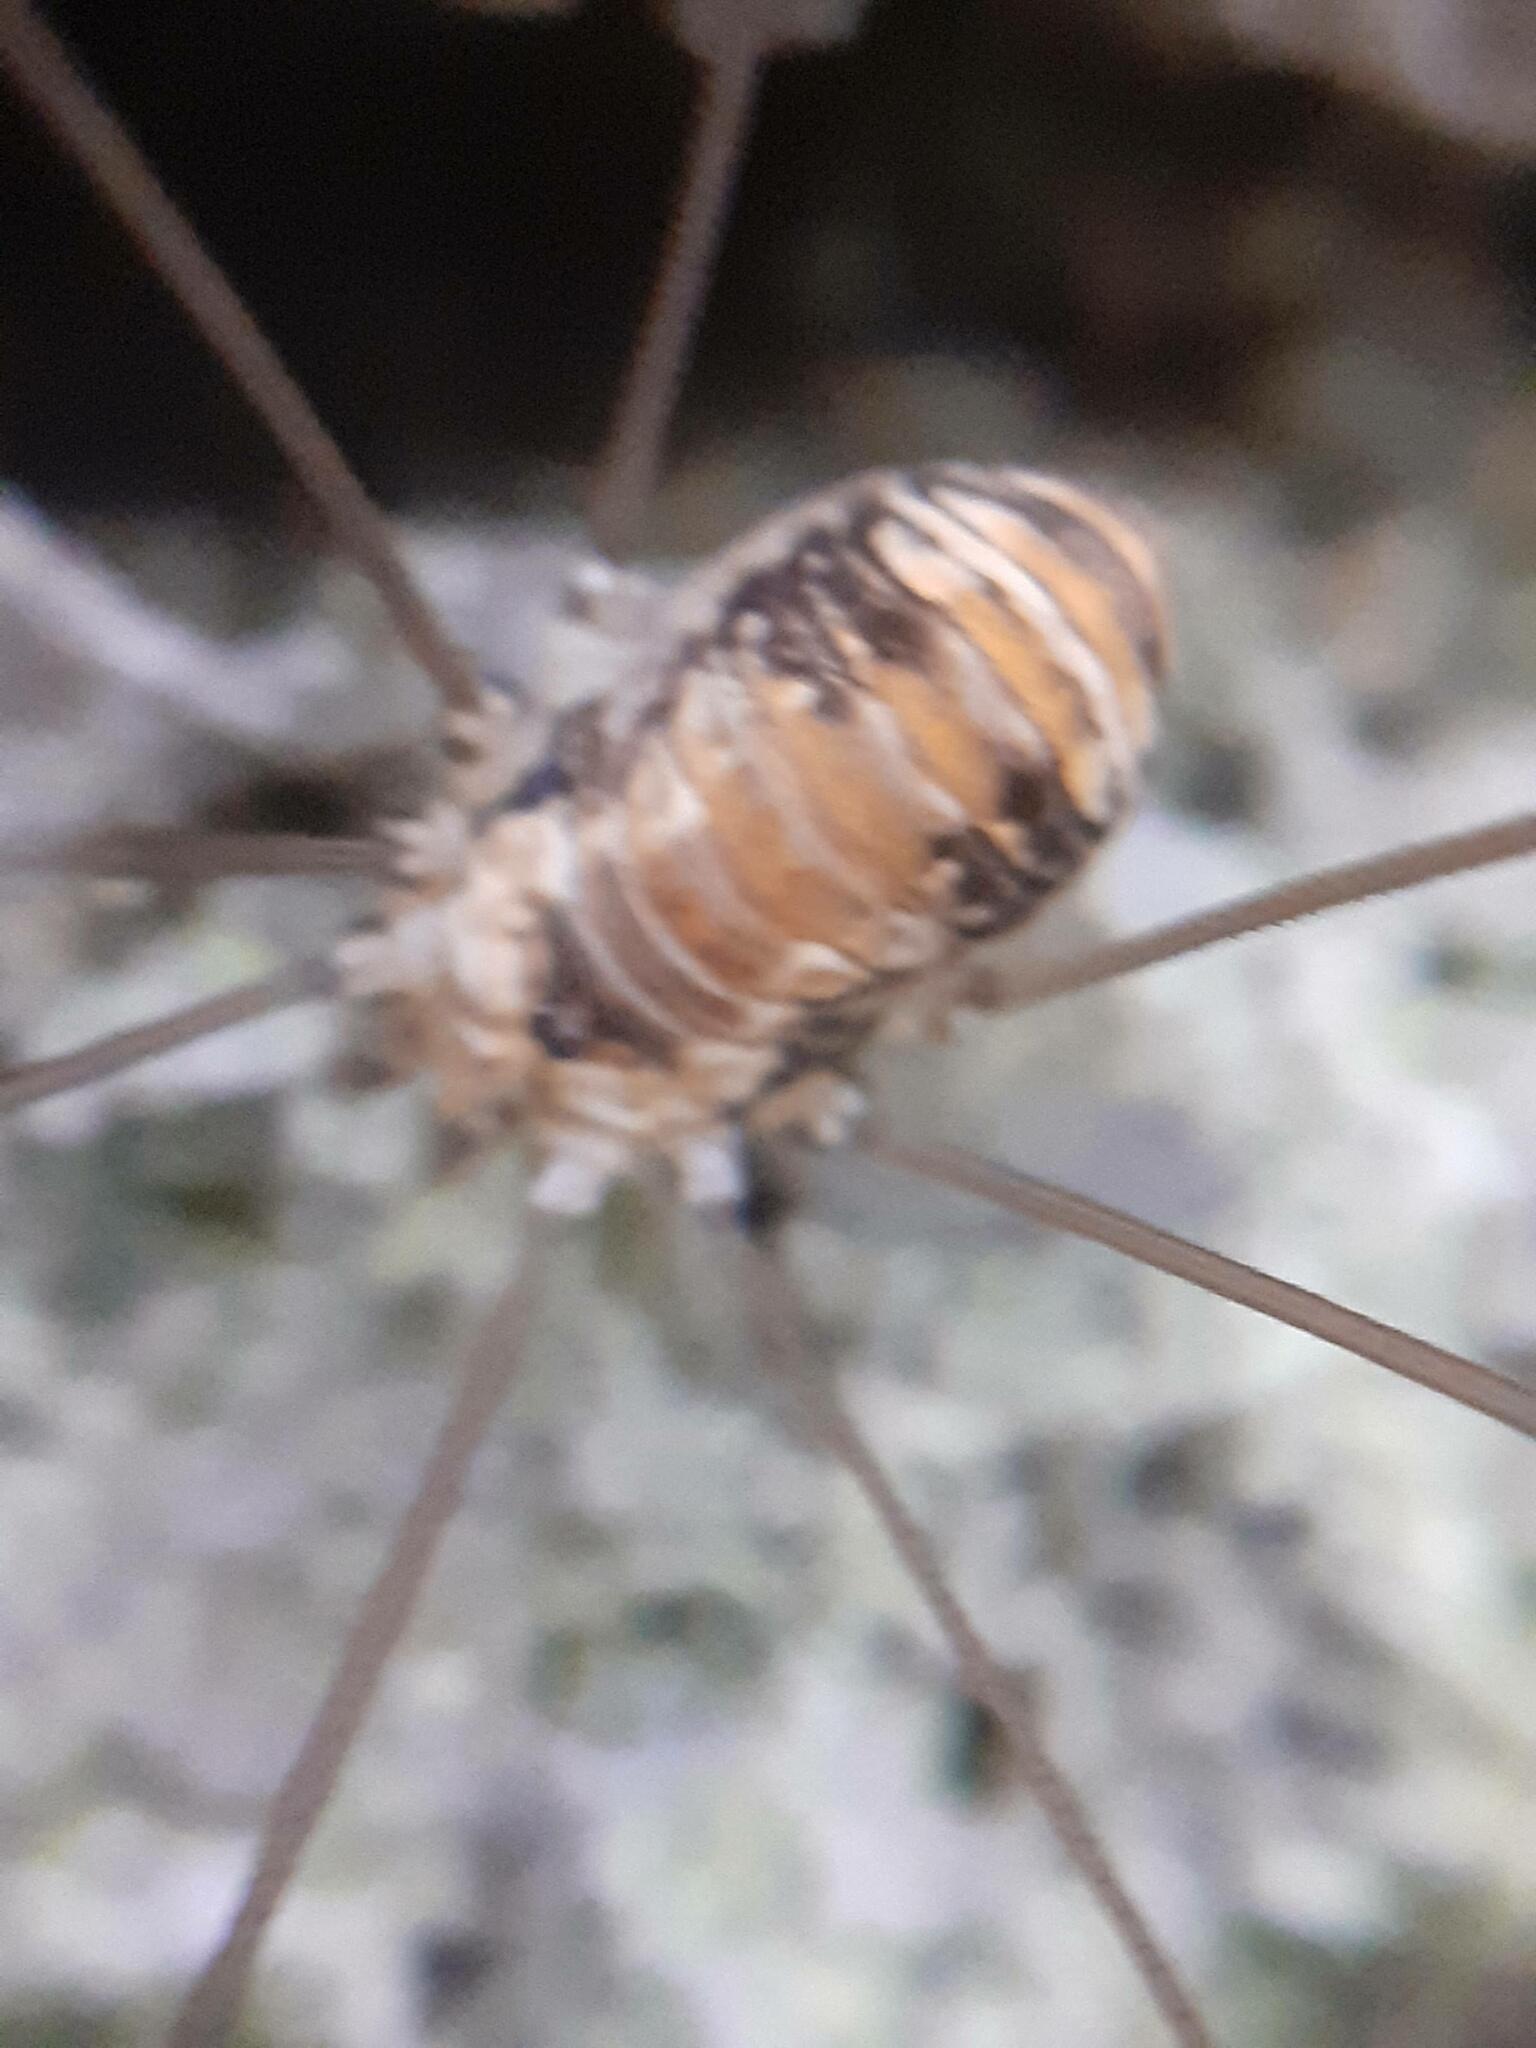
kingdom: Animalia
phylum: Arthropoda
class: Arachnida
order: Opiliones
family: Sclerosomatidae
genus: Leiobunum
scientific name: Leiobunum limbatum
